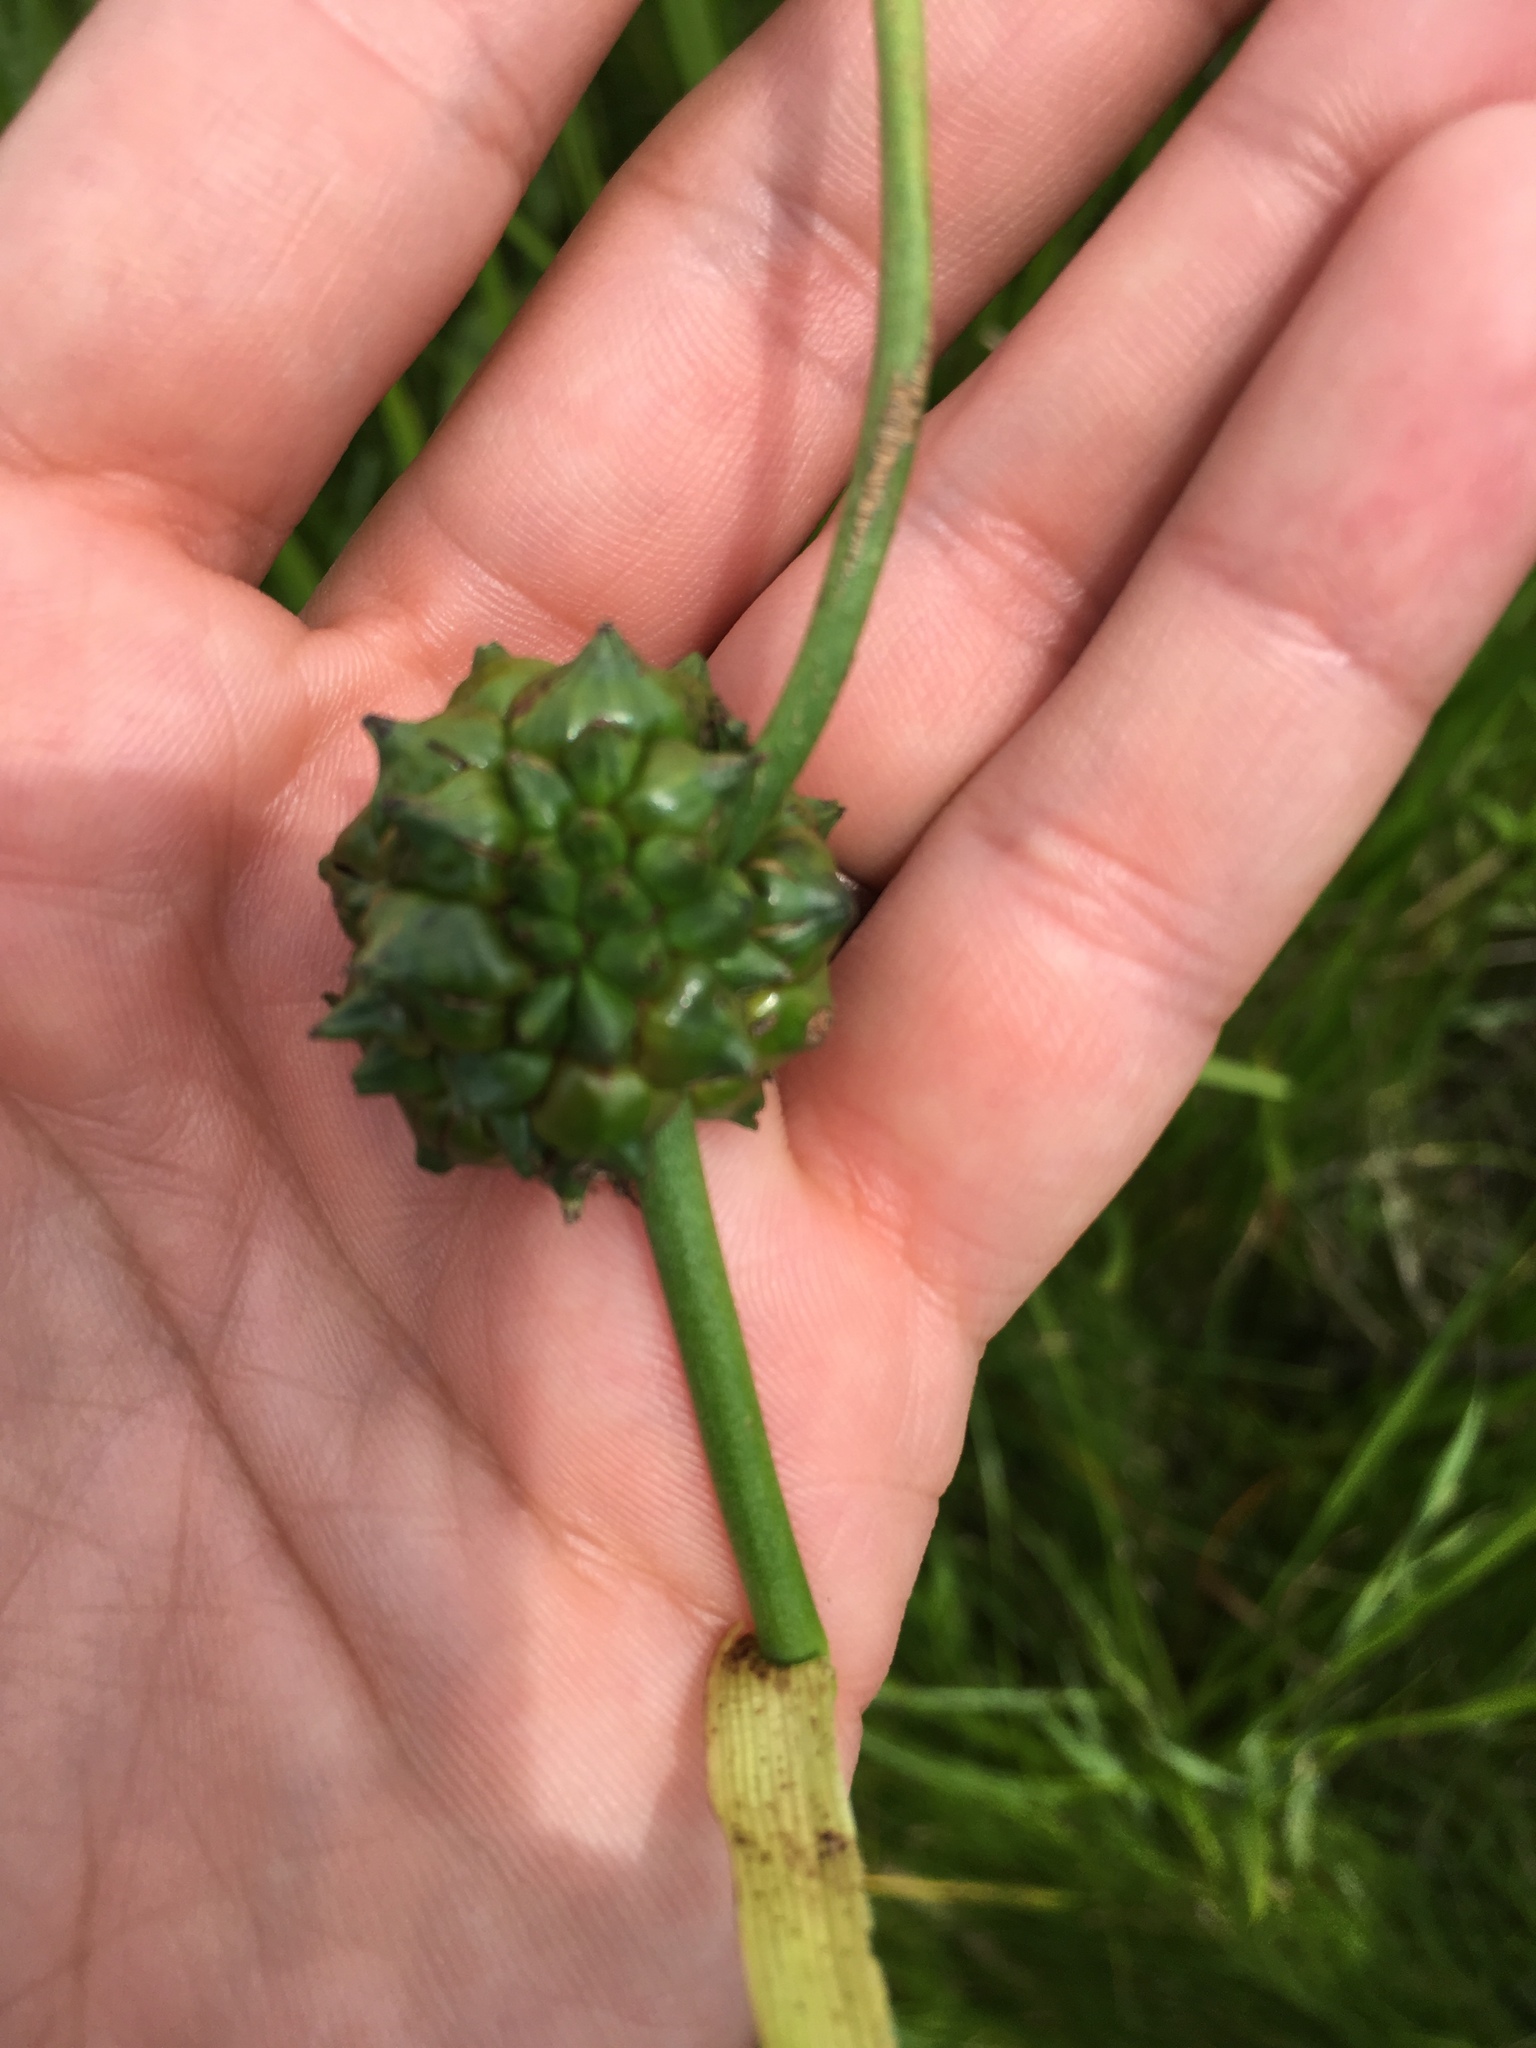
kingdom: Plantae
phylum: Tracheophyta
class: Liliopsida
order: Poales
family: Typhaceae
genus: Sparganium
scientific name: Sparganium eurycarpum
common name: Broad-fruited burreed
